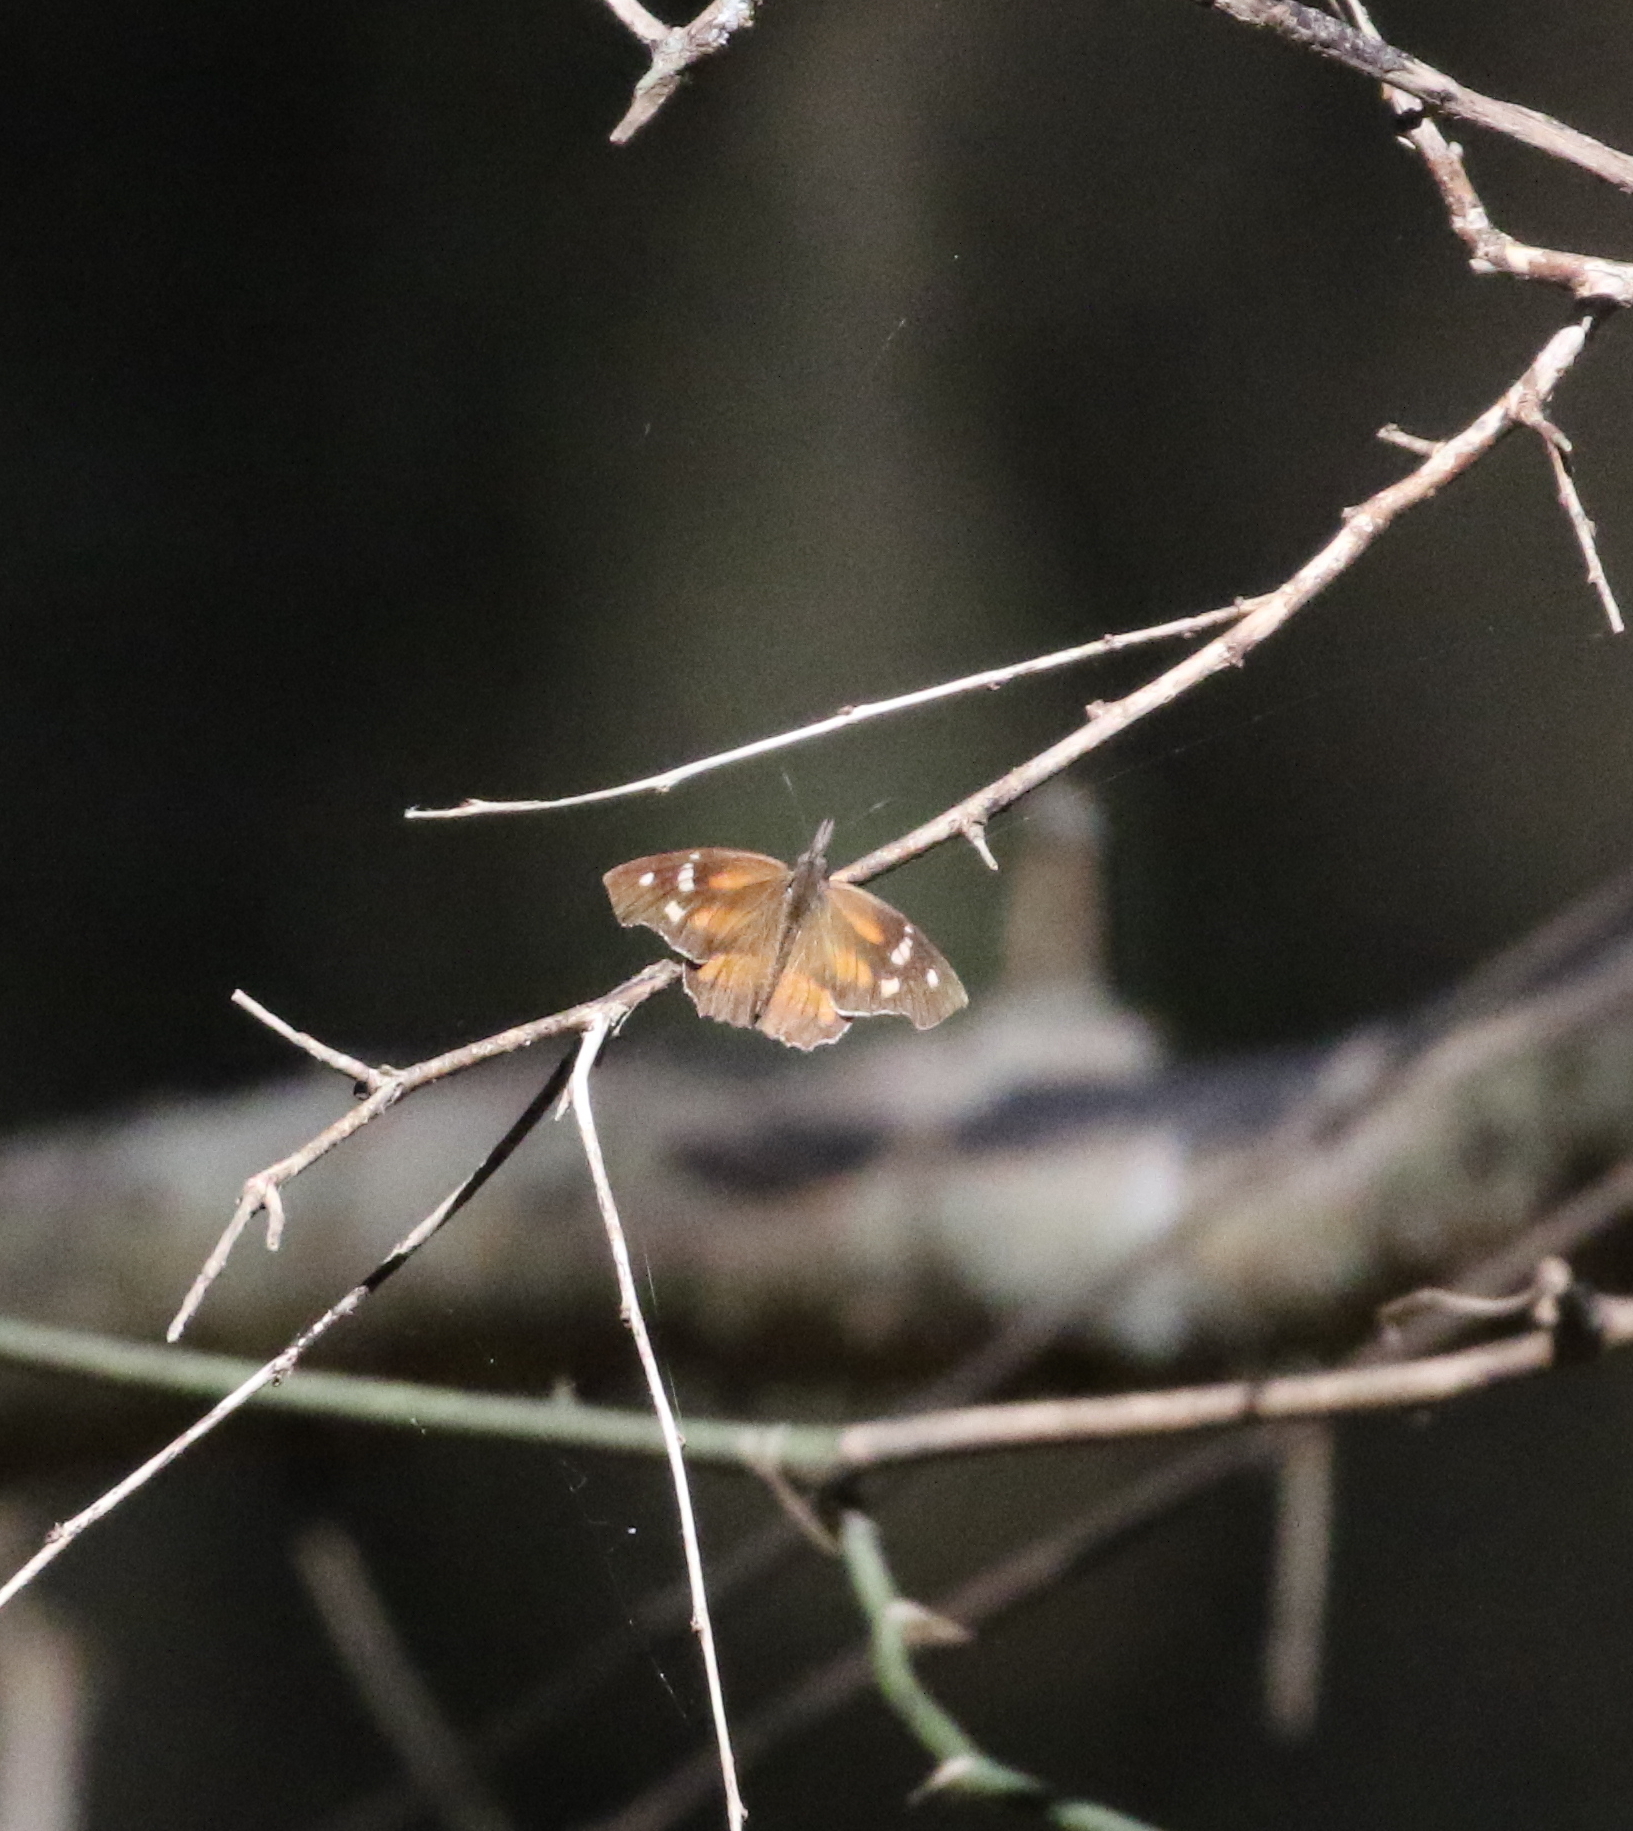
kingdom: Animalia
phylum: Arthropoda
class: Insecta
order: Lepidoptera
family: Nymphalidae
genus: Libytheana
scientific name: Libytheana carinenta
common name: American snout
